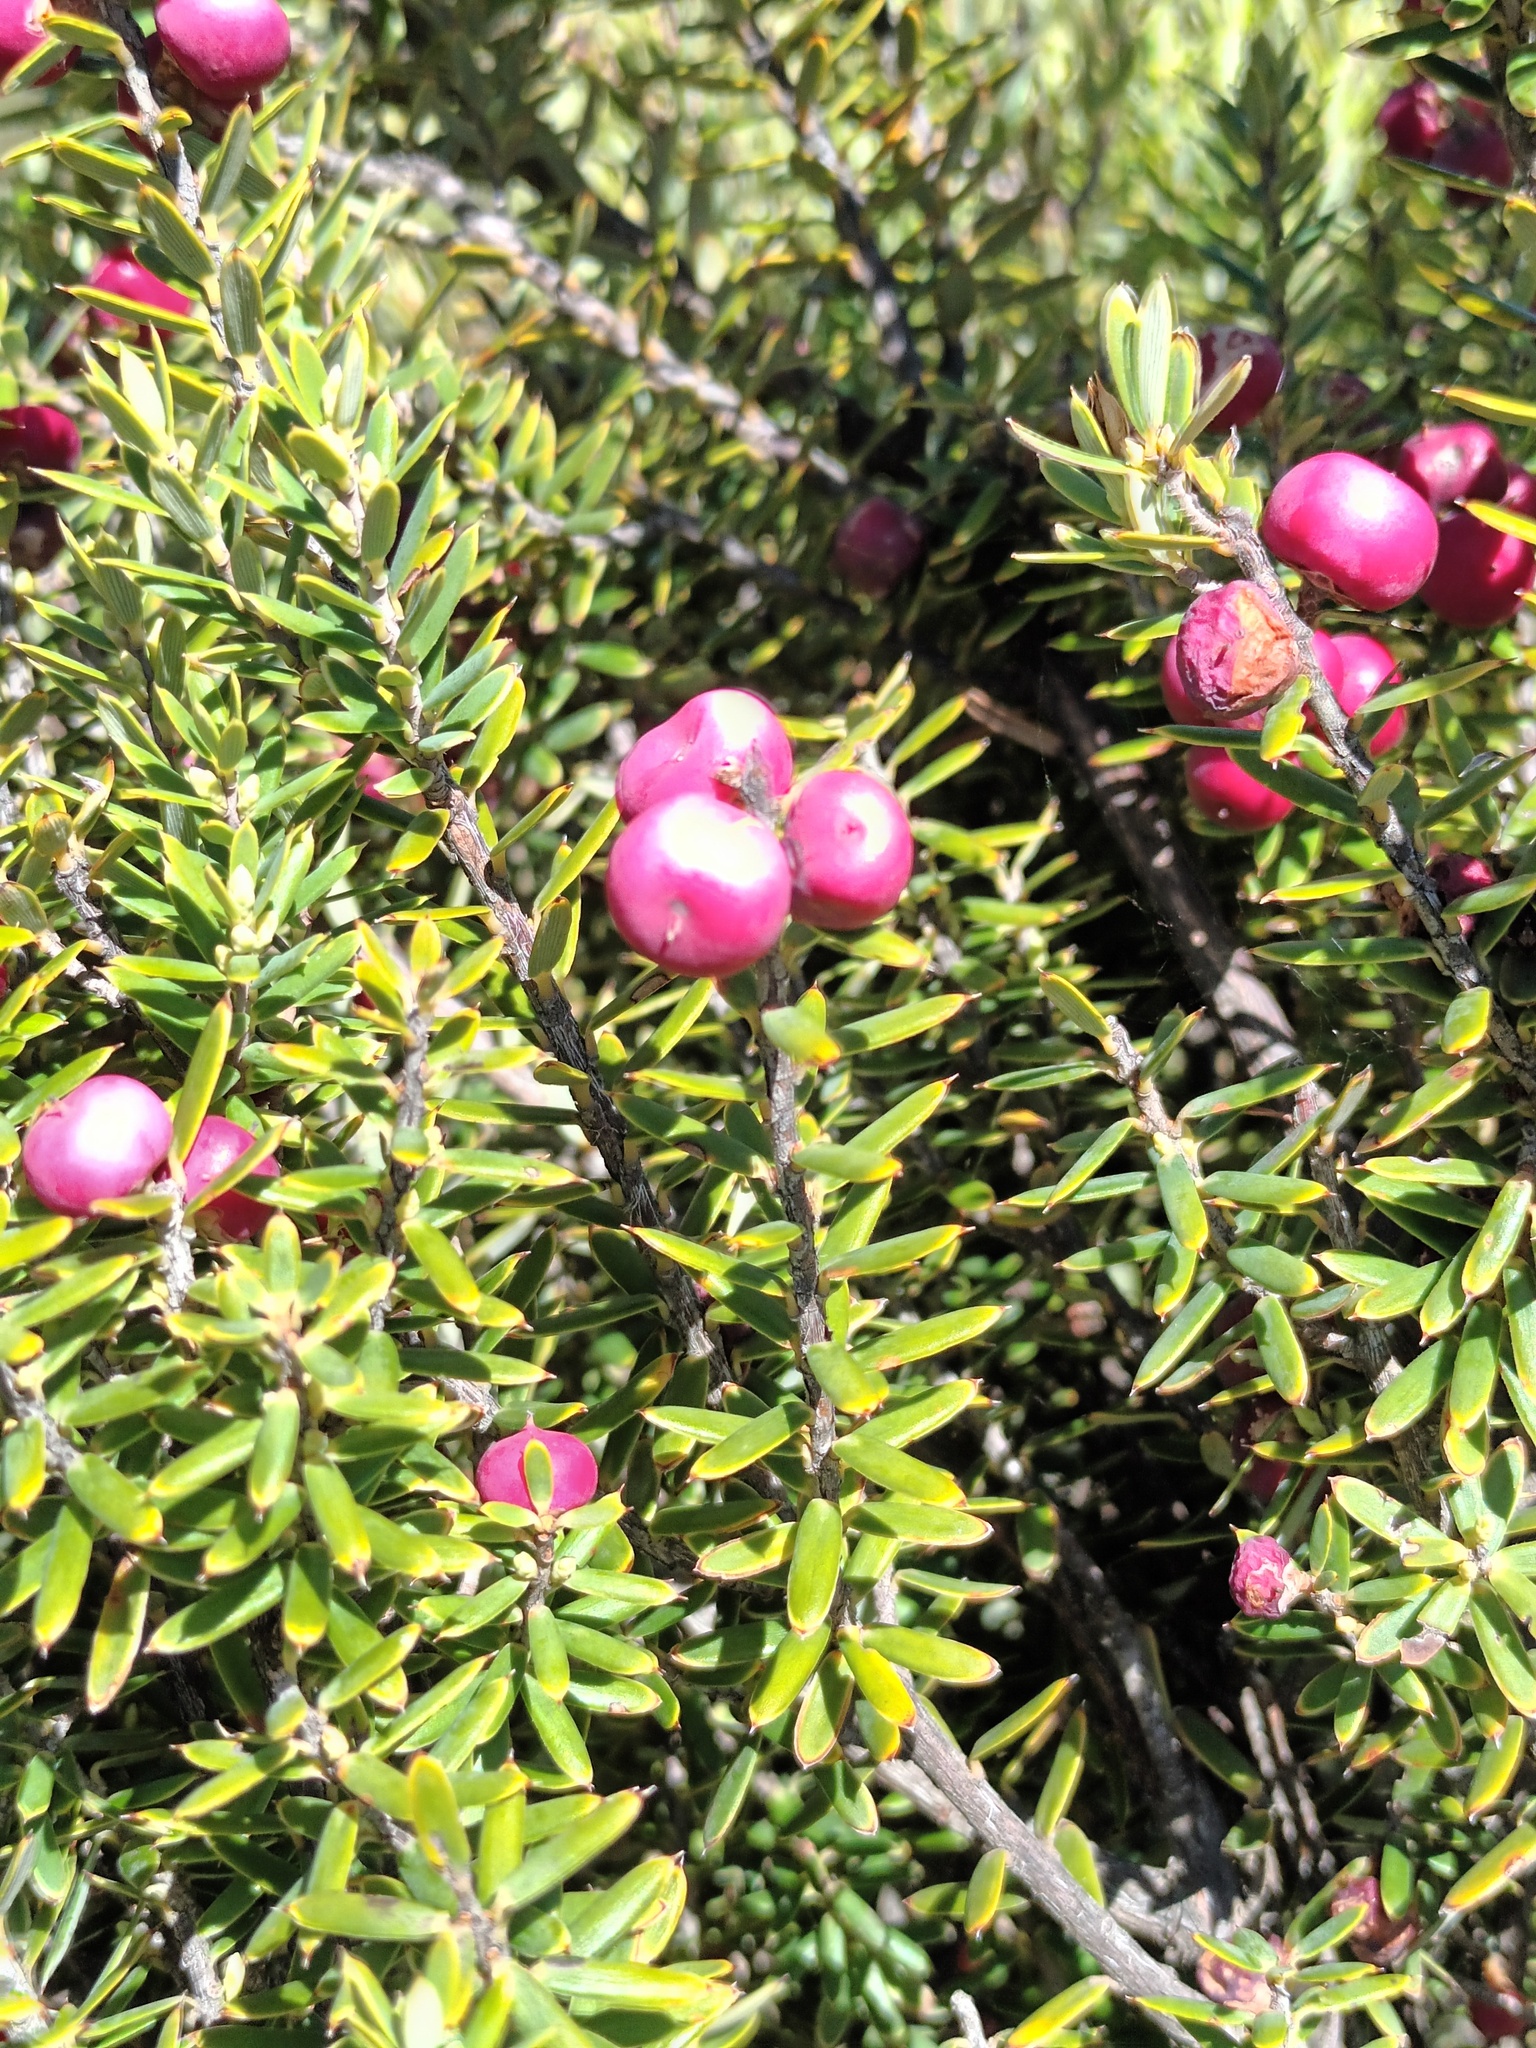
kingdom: Plantae
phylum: Tracheophyta
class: Magnoliopsida
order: Ericales
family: Ericaceae
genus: Leptecophylla
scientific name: Leptecophylla tameiameiae
